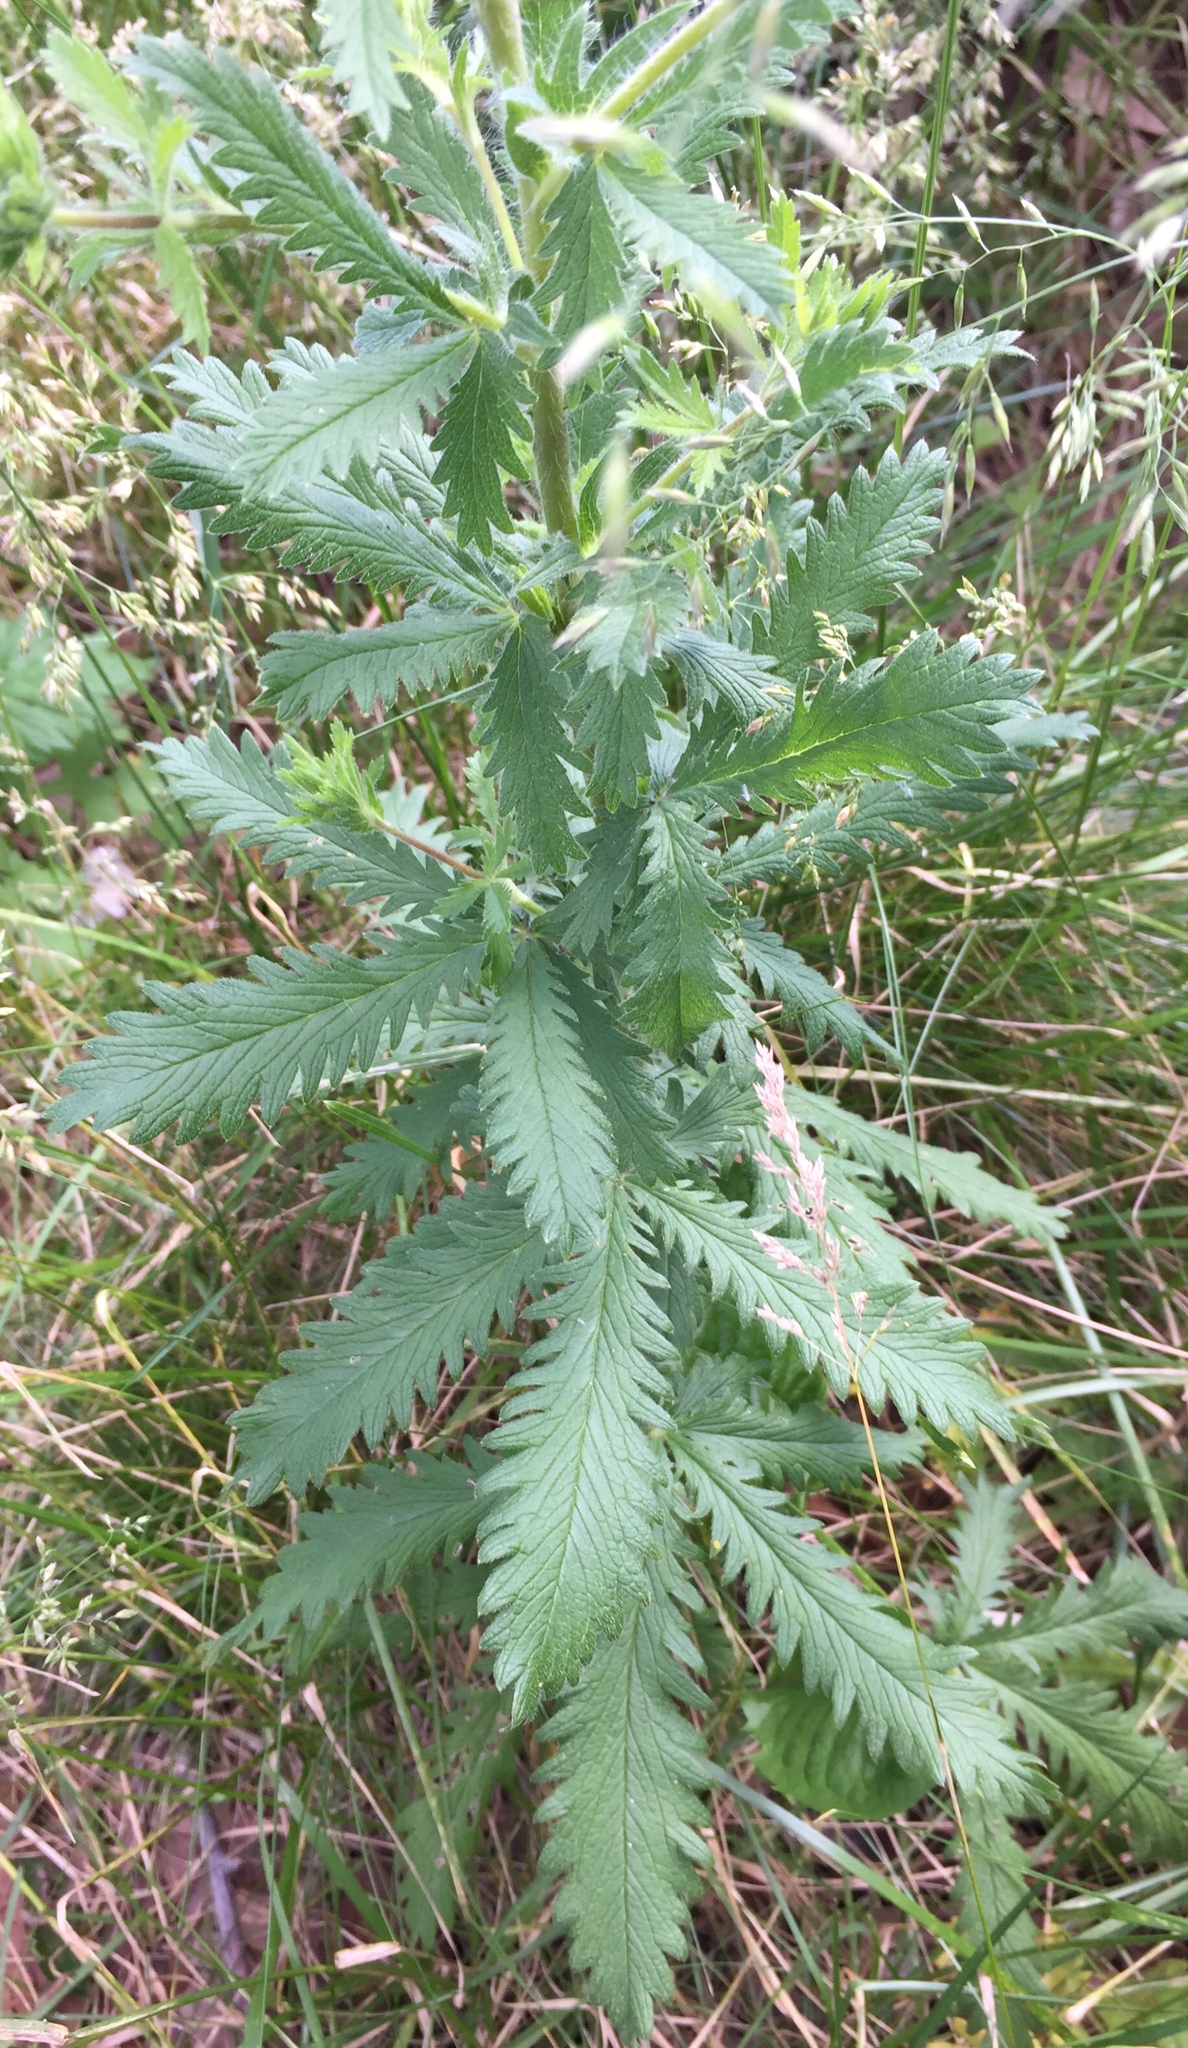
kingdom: Plantae
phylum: Tracheophyta
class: Magnoliopsida
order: Rosales
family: Rosaceae
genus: Potentilla
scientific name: Potentilla recta
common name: Sulphur cinquefoil
